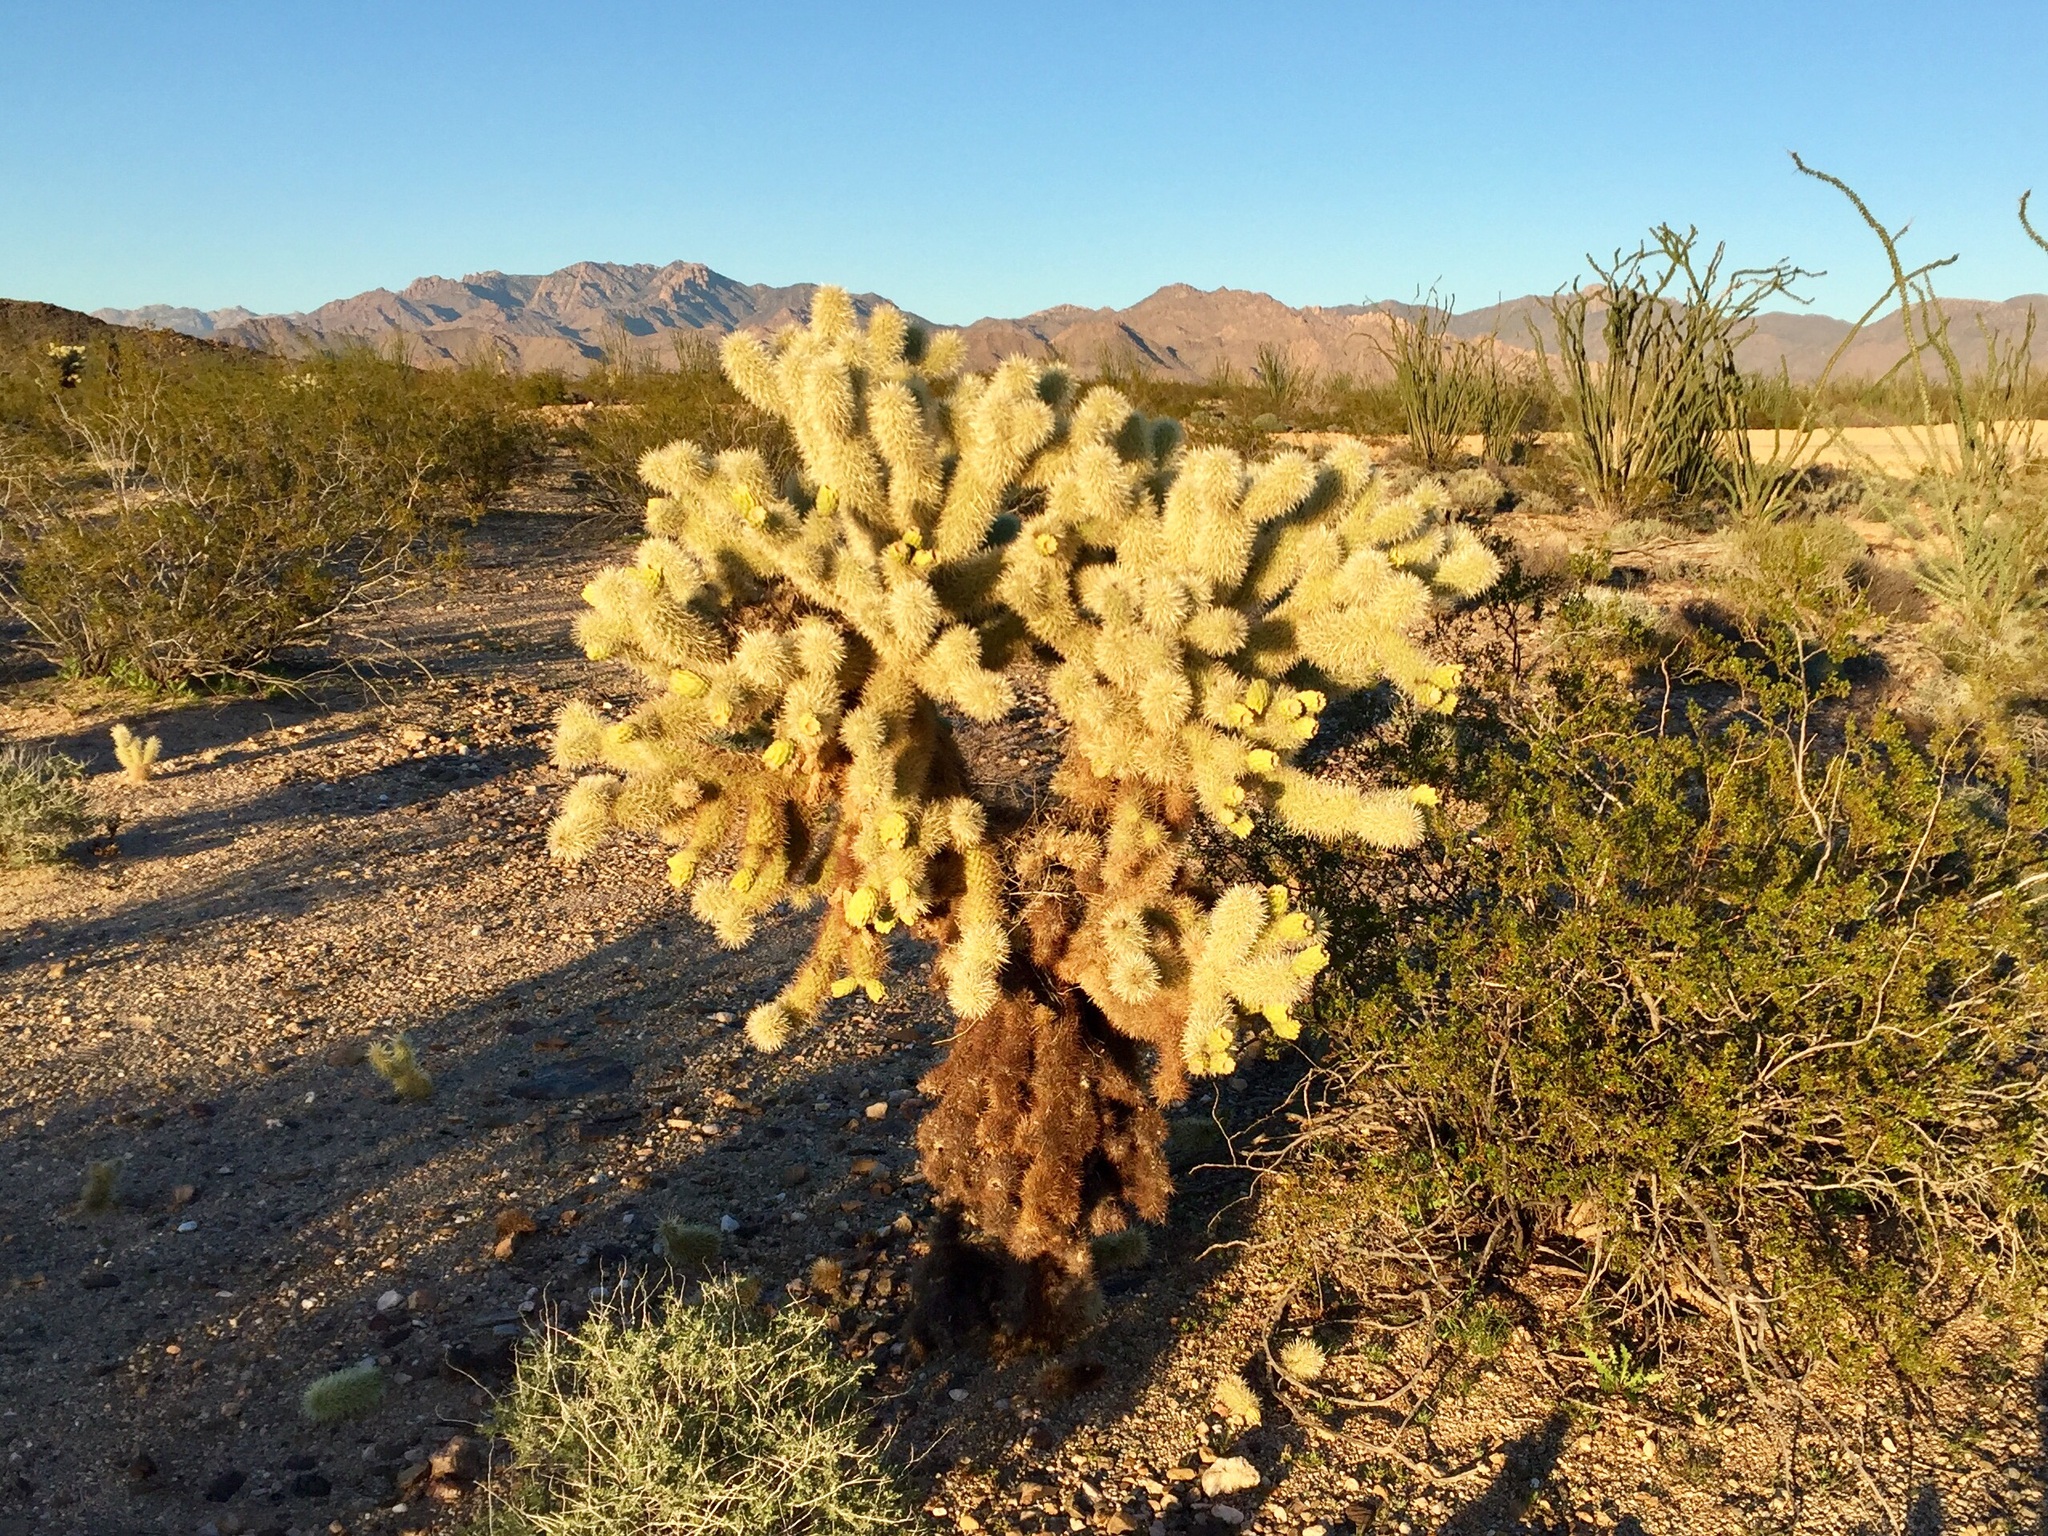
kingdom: Plantae
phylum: Tracheophyta
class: Magnoliopsida
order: Caryophyllales
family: Cactaceae
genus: Cylindropuntia
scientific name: Cylindropuntia fosbergii
